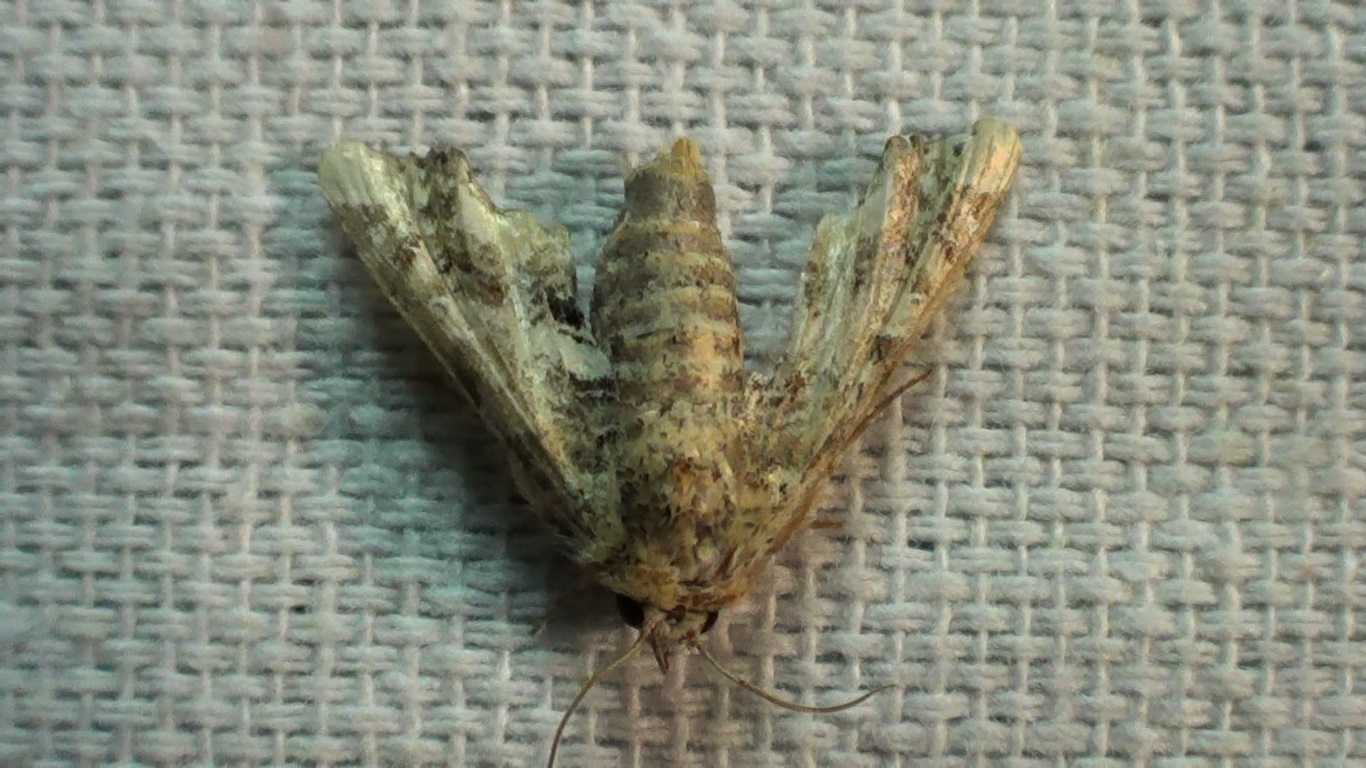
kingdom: Animalia
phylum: Arthropoda
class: Insecta
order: Lepidoptera
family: Euteliidae
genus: Eutelia
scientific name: Eutelia adulatrix
